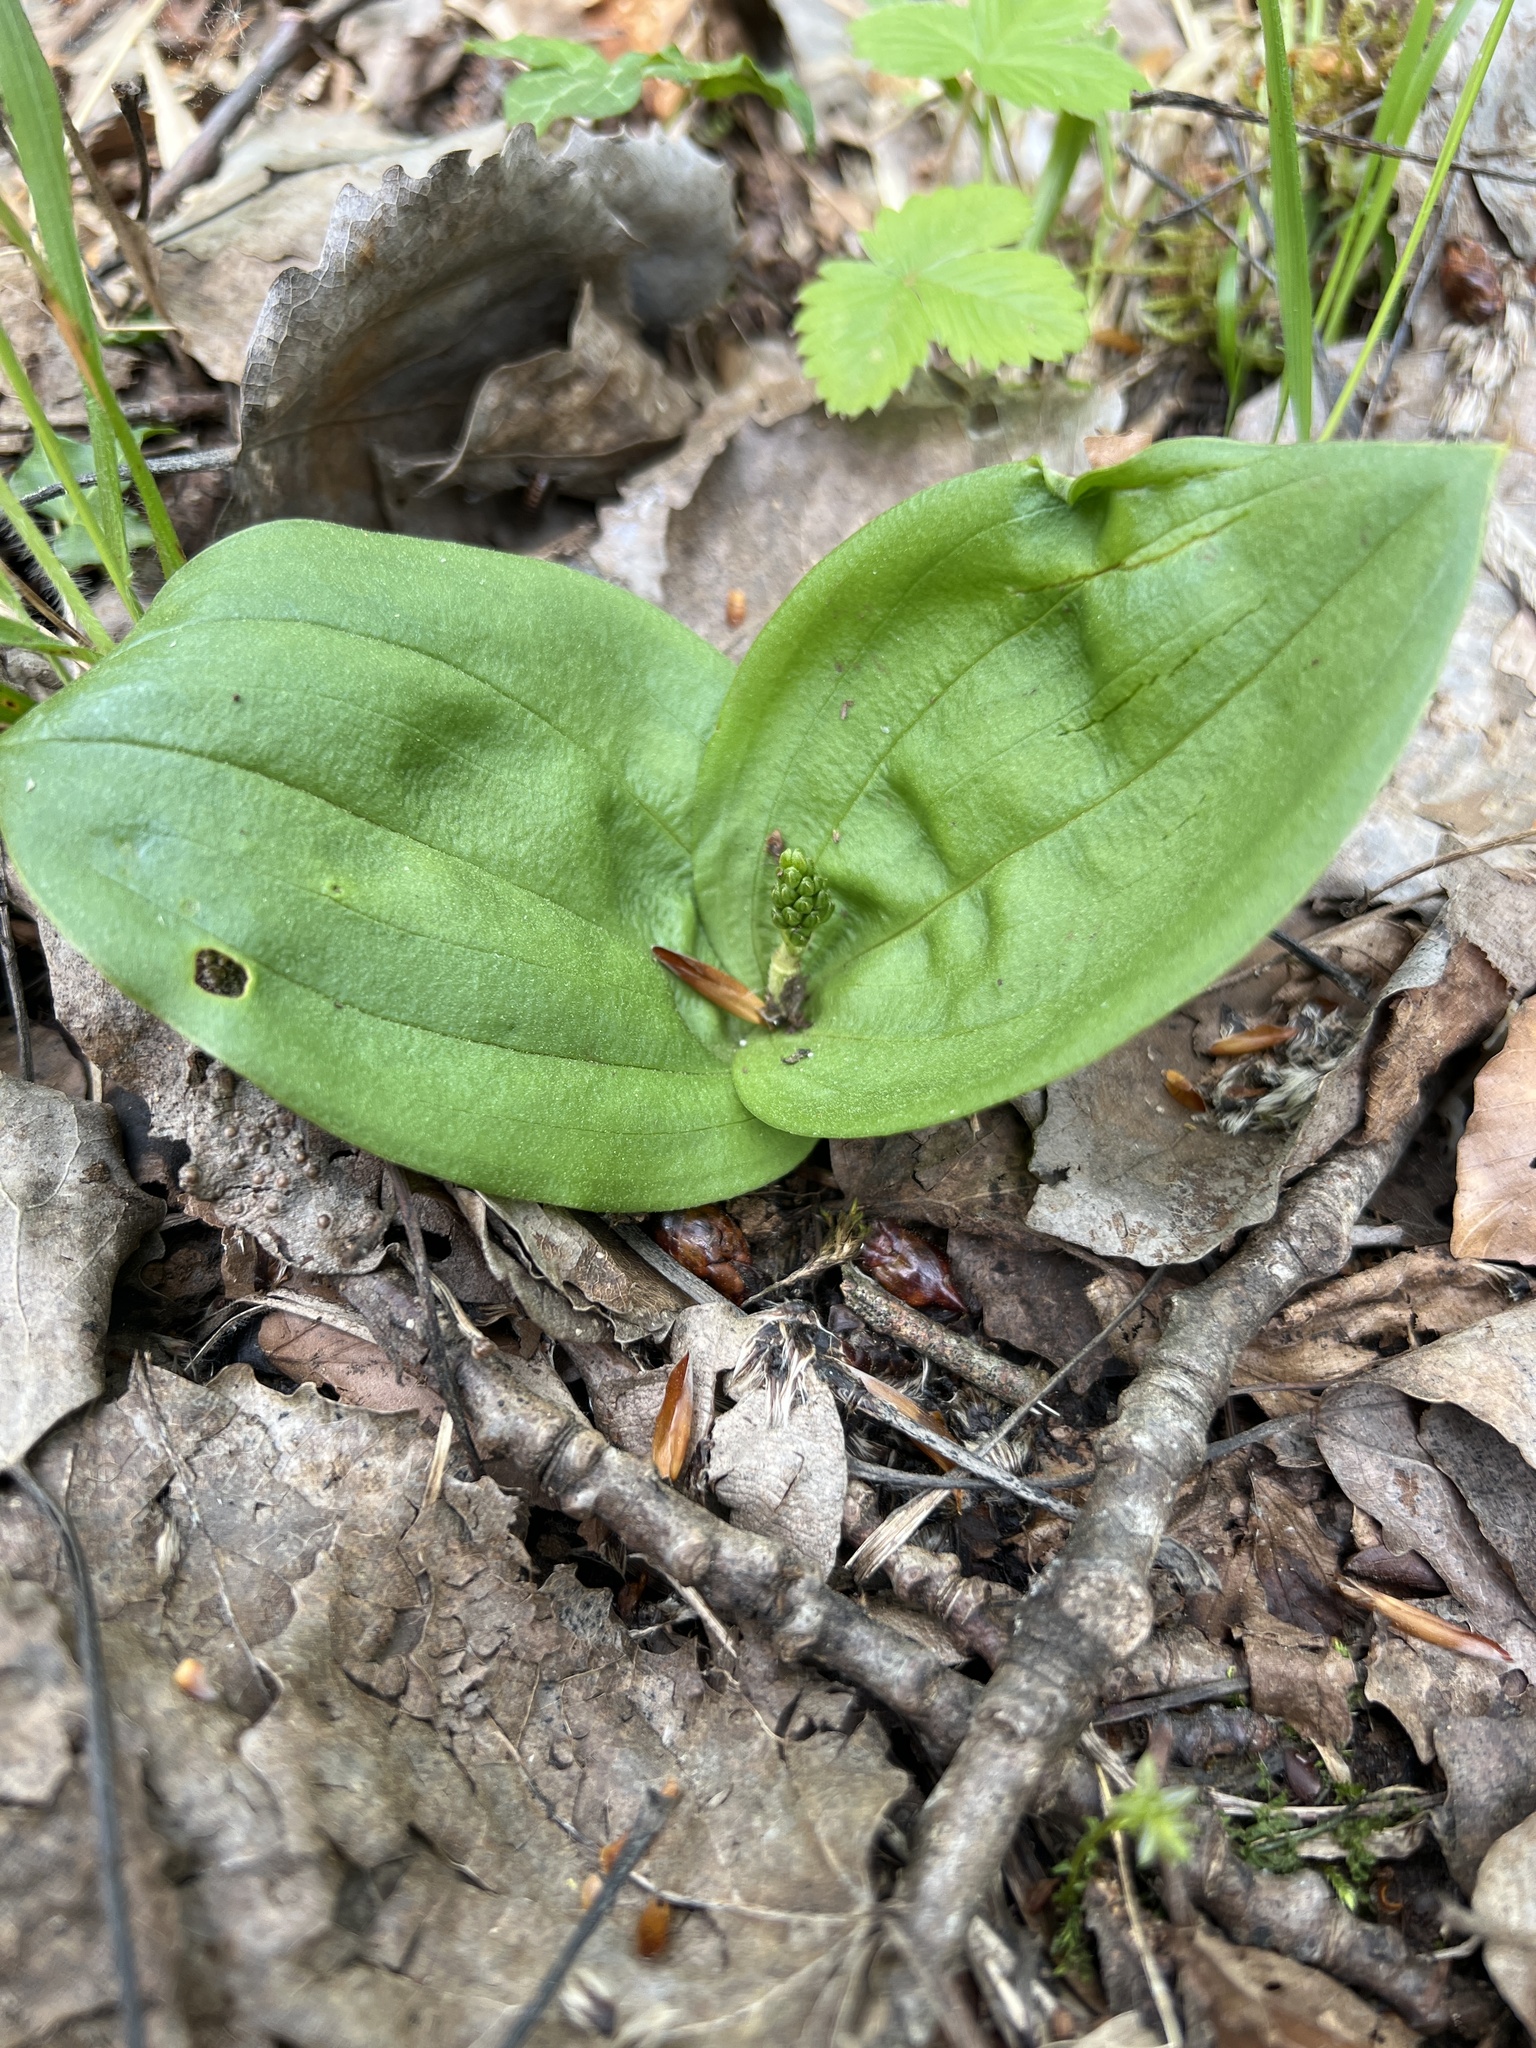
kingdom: Plantae
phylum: Tracheophyta
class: Liliopsida
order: Asparagales
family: Orchidaceae
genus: Neottia
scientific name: Neottia ovata
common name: Common twayblade
